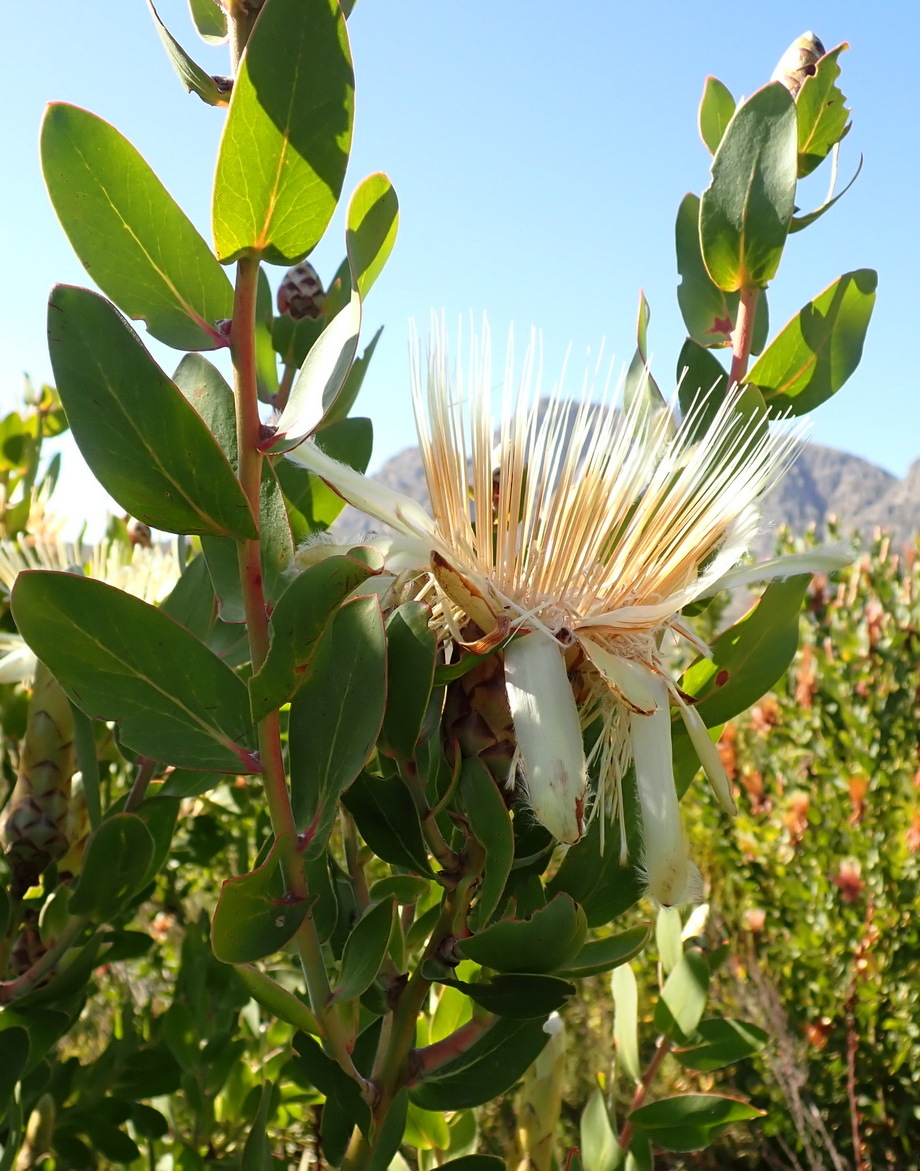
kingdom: Plantae
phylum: Tracheophyta
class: Magnoliopsida
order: Proteales
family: Proteaceae
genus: Protea
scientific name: Protea aurea
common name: Shuttlecock sugarbush
